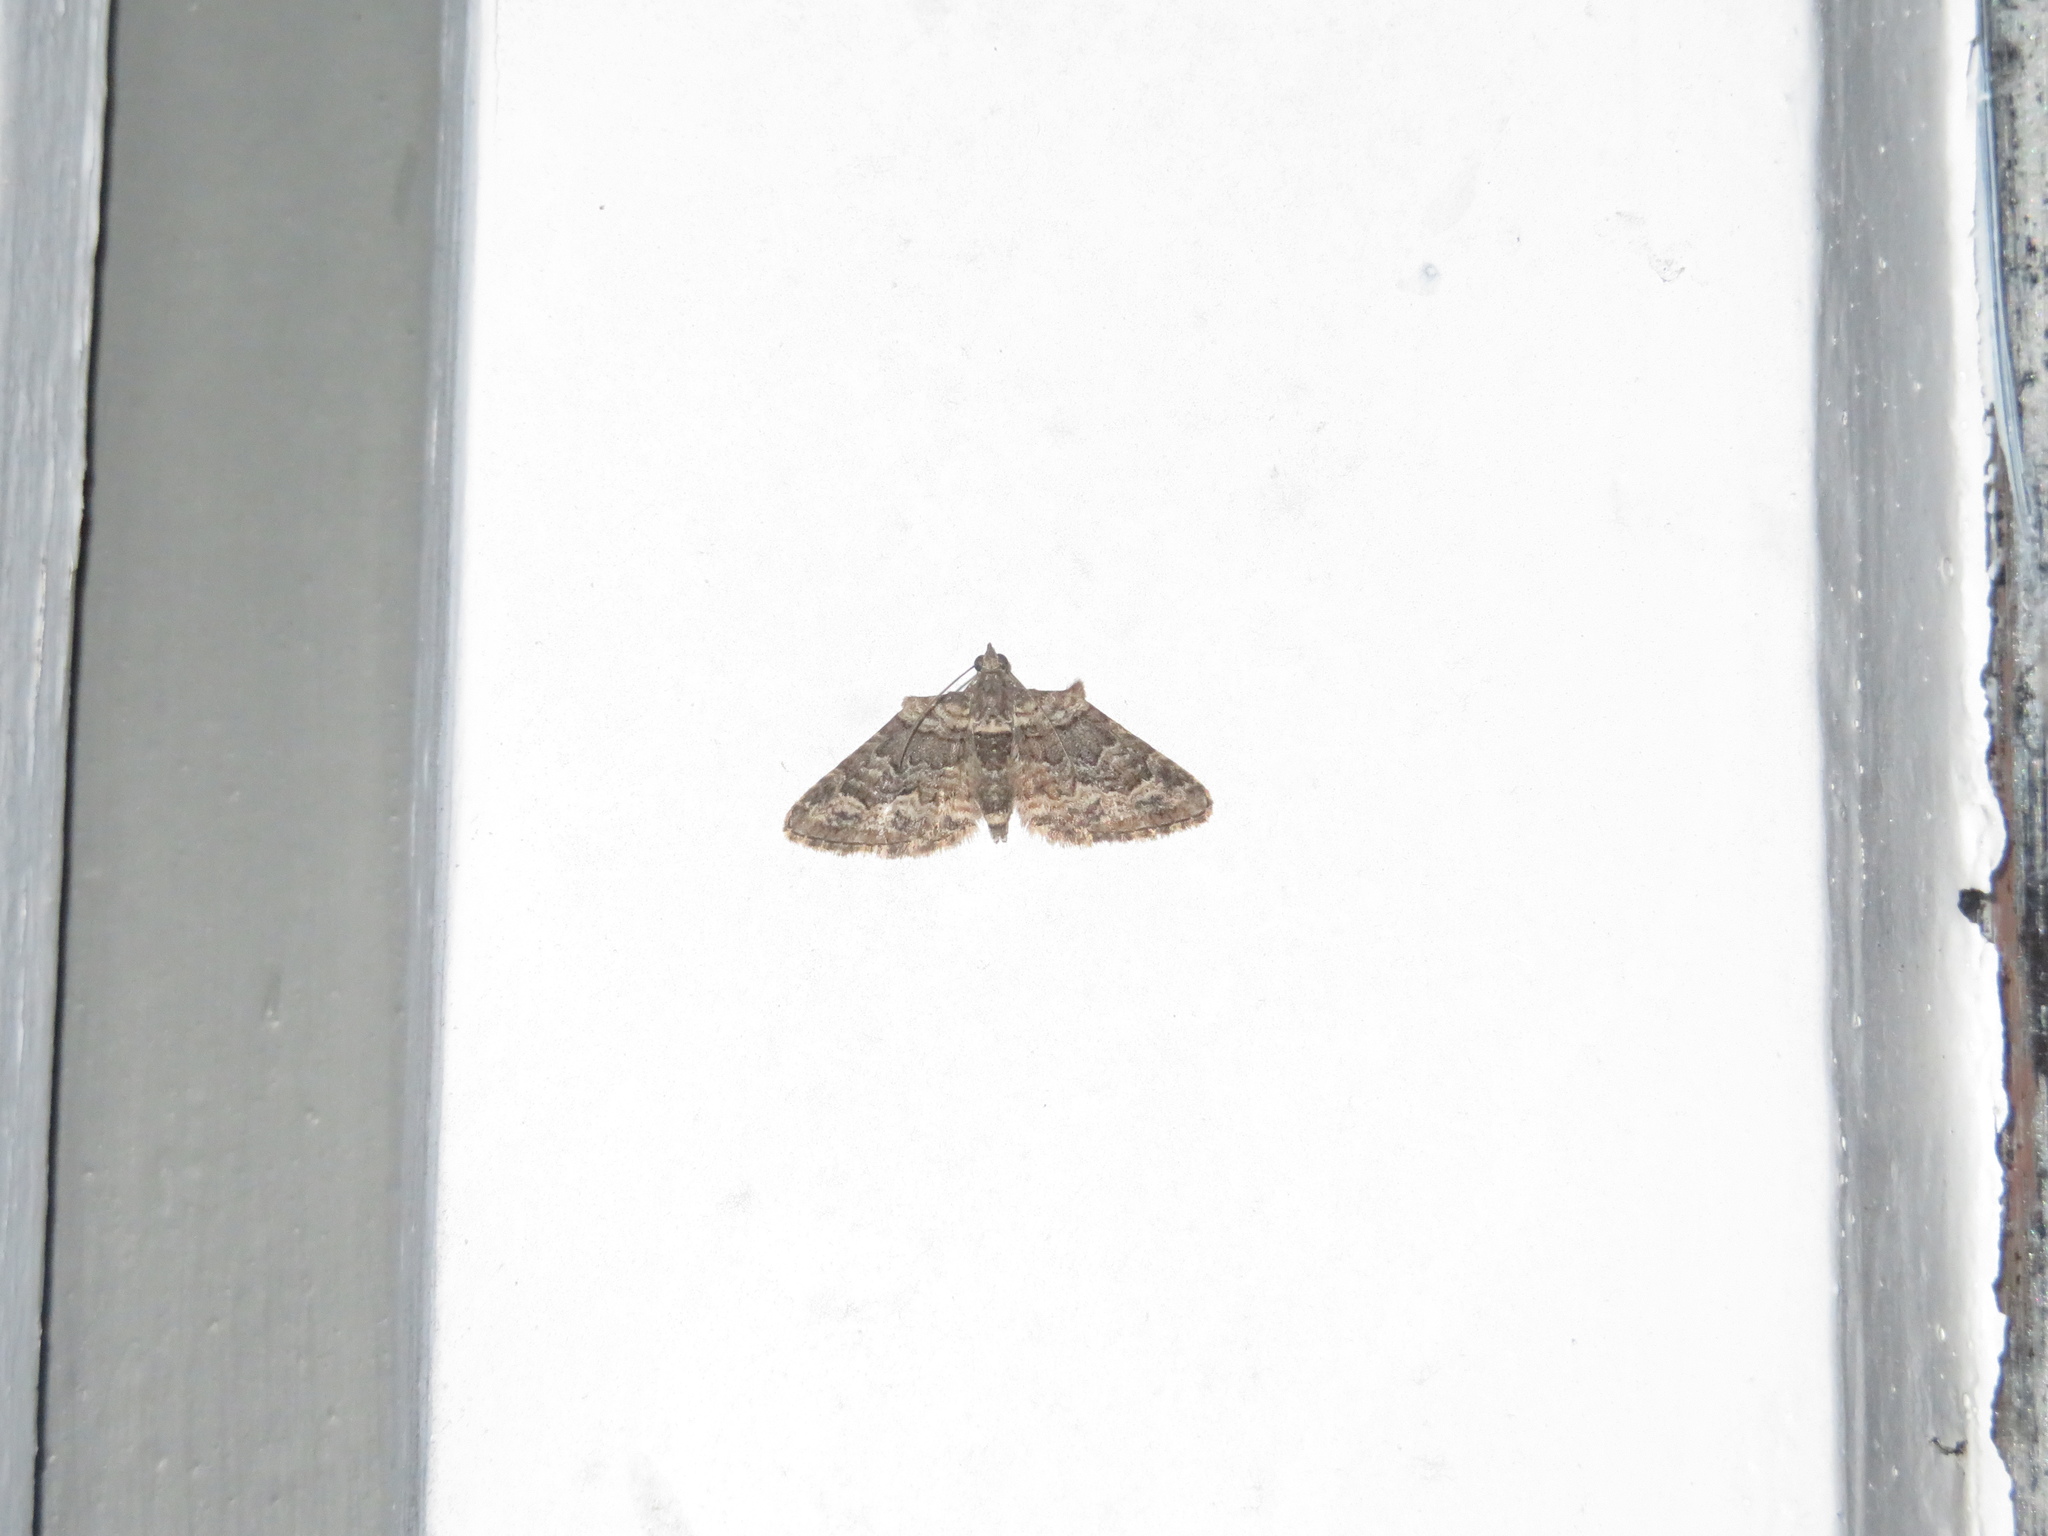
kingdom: Animalia
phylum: Arthropoda
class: Insecta
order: Lepidoptera
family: Geometridae
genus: Phrissogonus
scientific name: Phrissogonus laticostata
